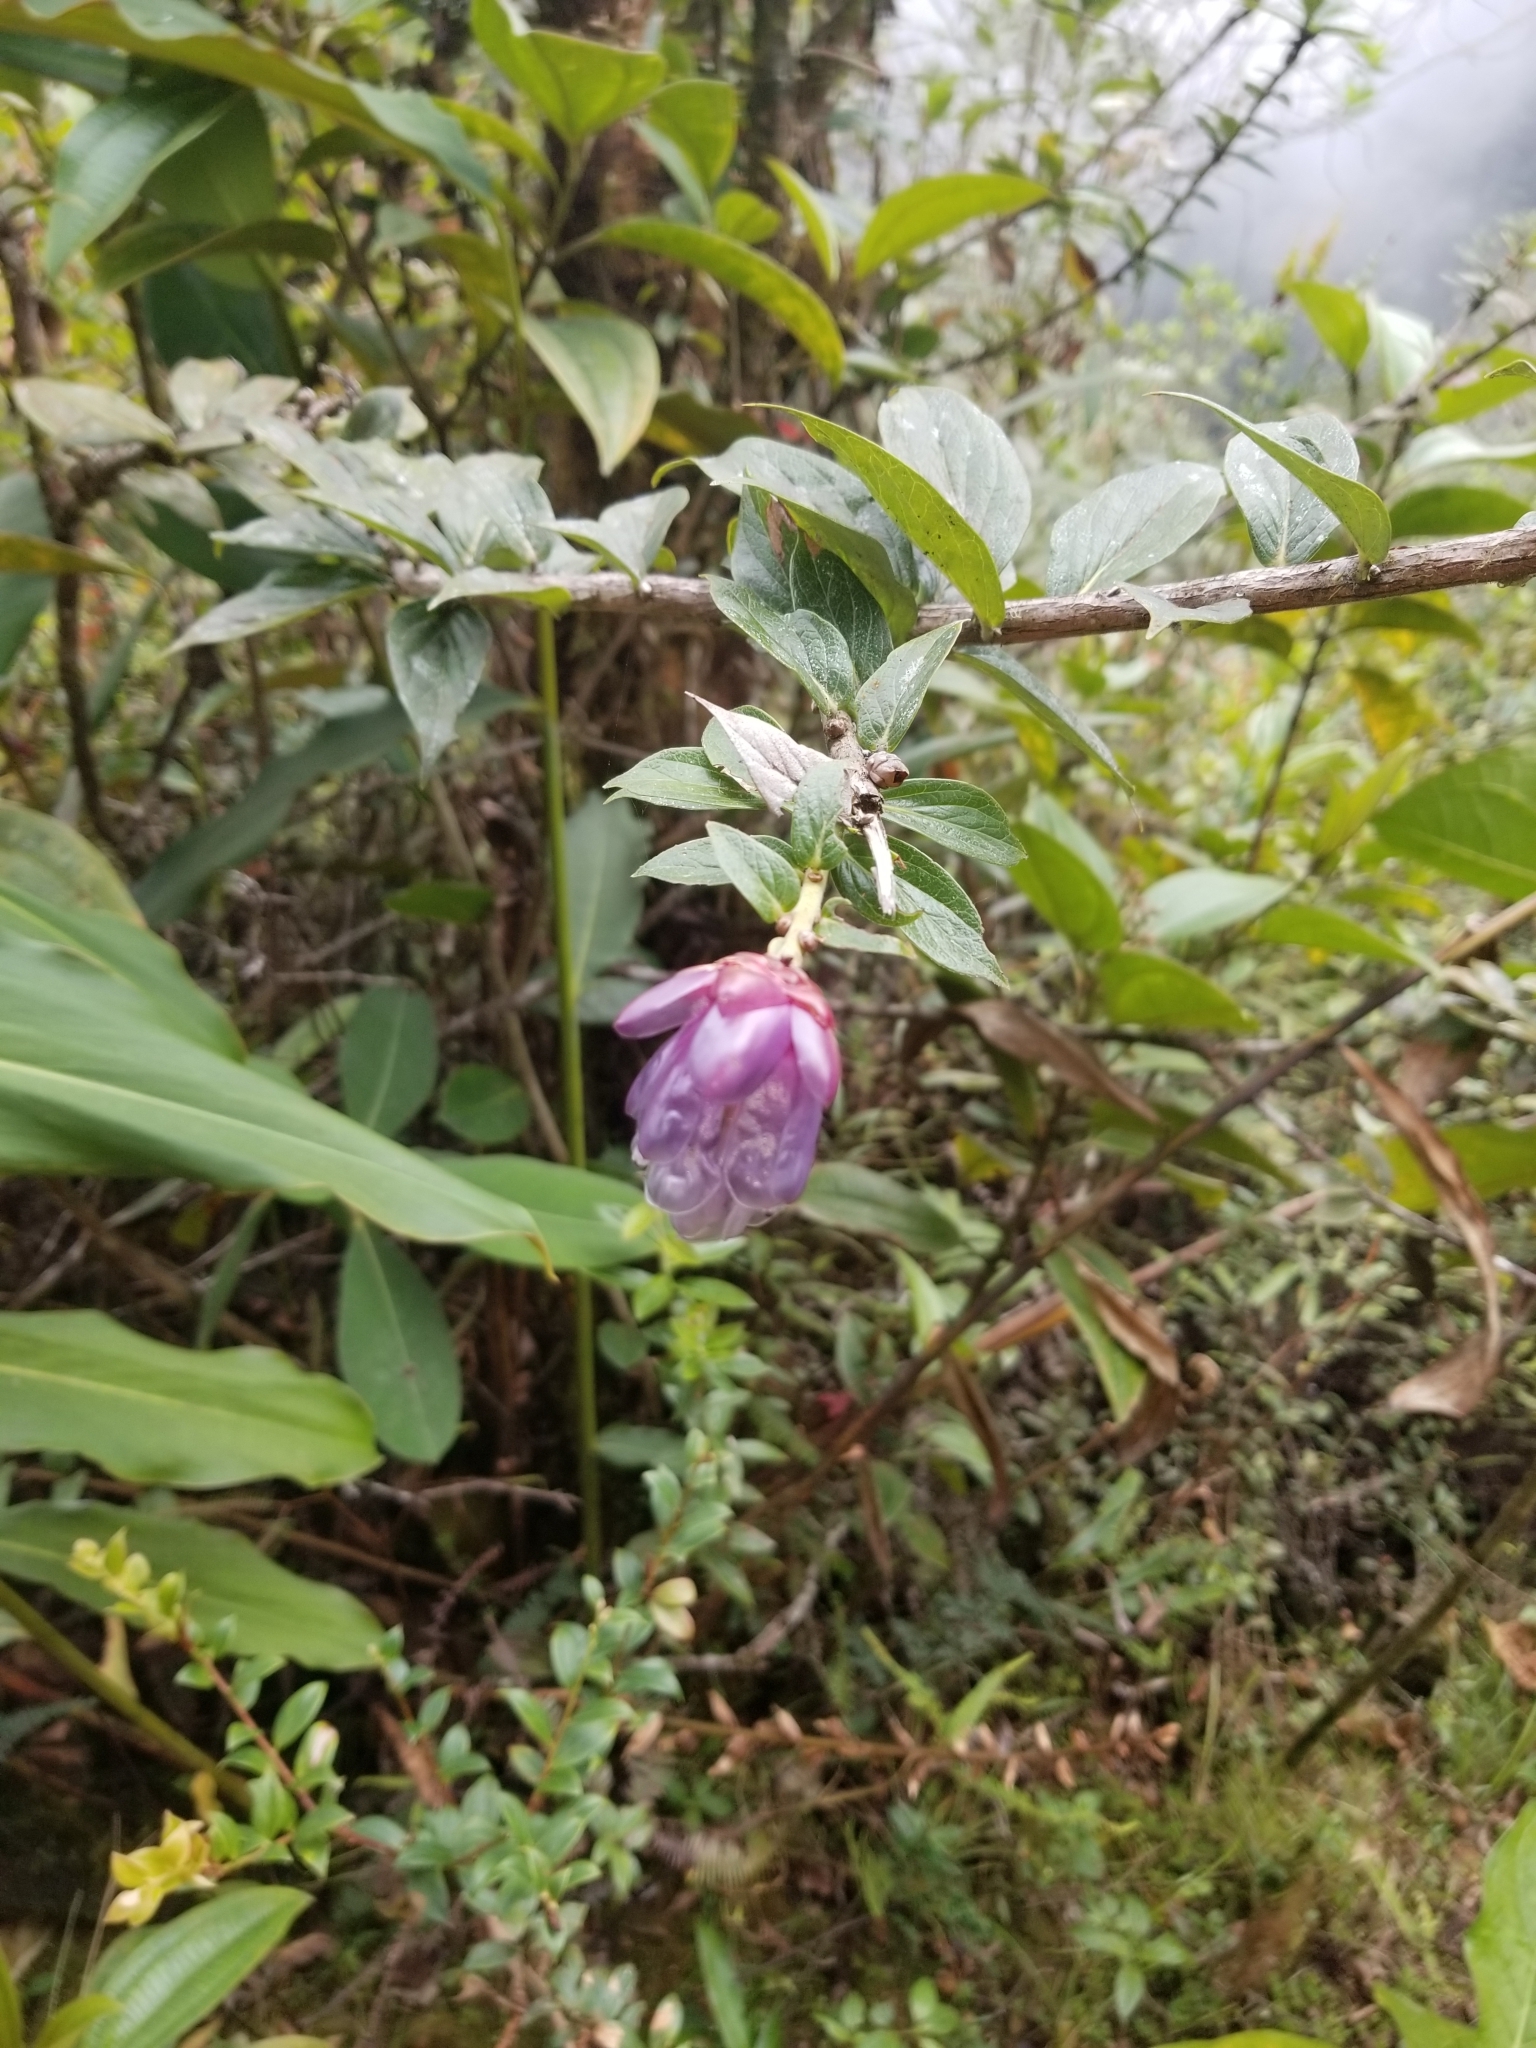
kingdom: Plantae
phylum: Tracheophyta
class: Magnoliopsida
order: Ericales
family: Ericaceae
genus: Cavendishia
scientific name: Cavendishia angustifolia
